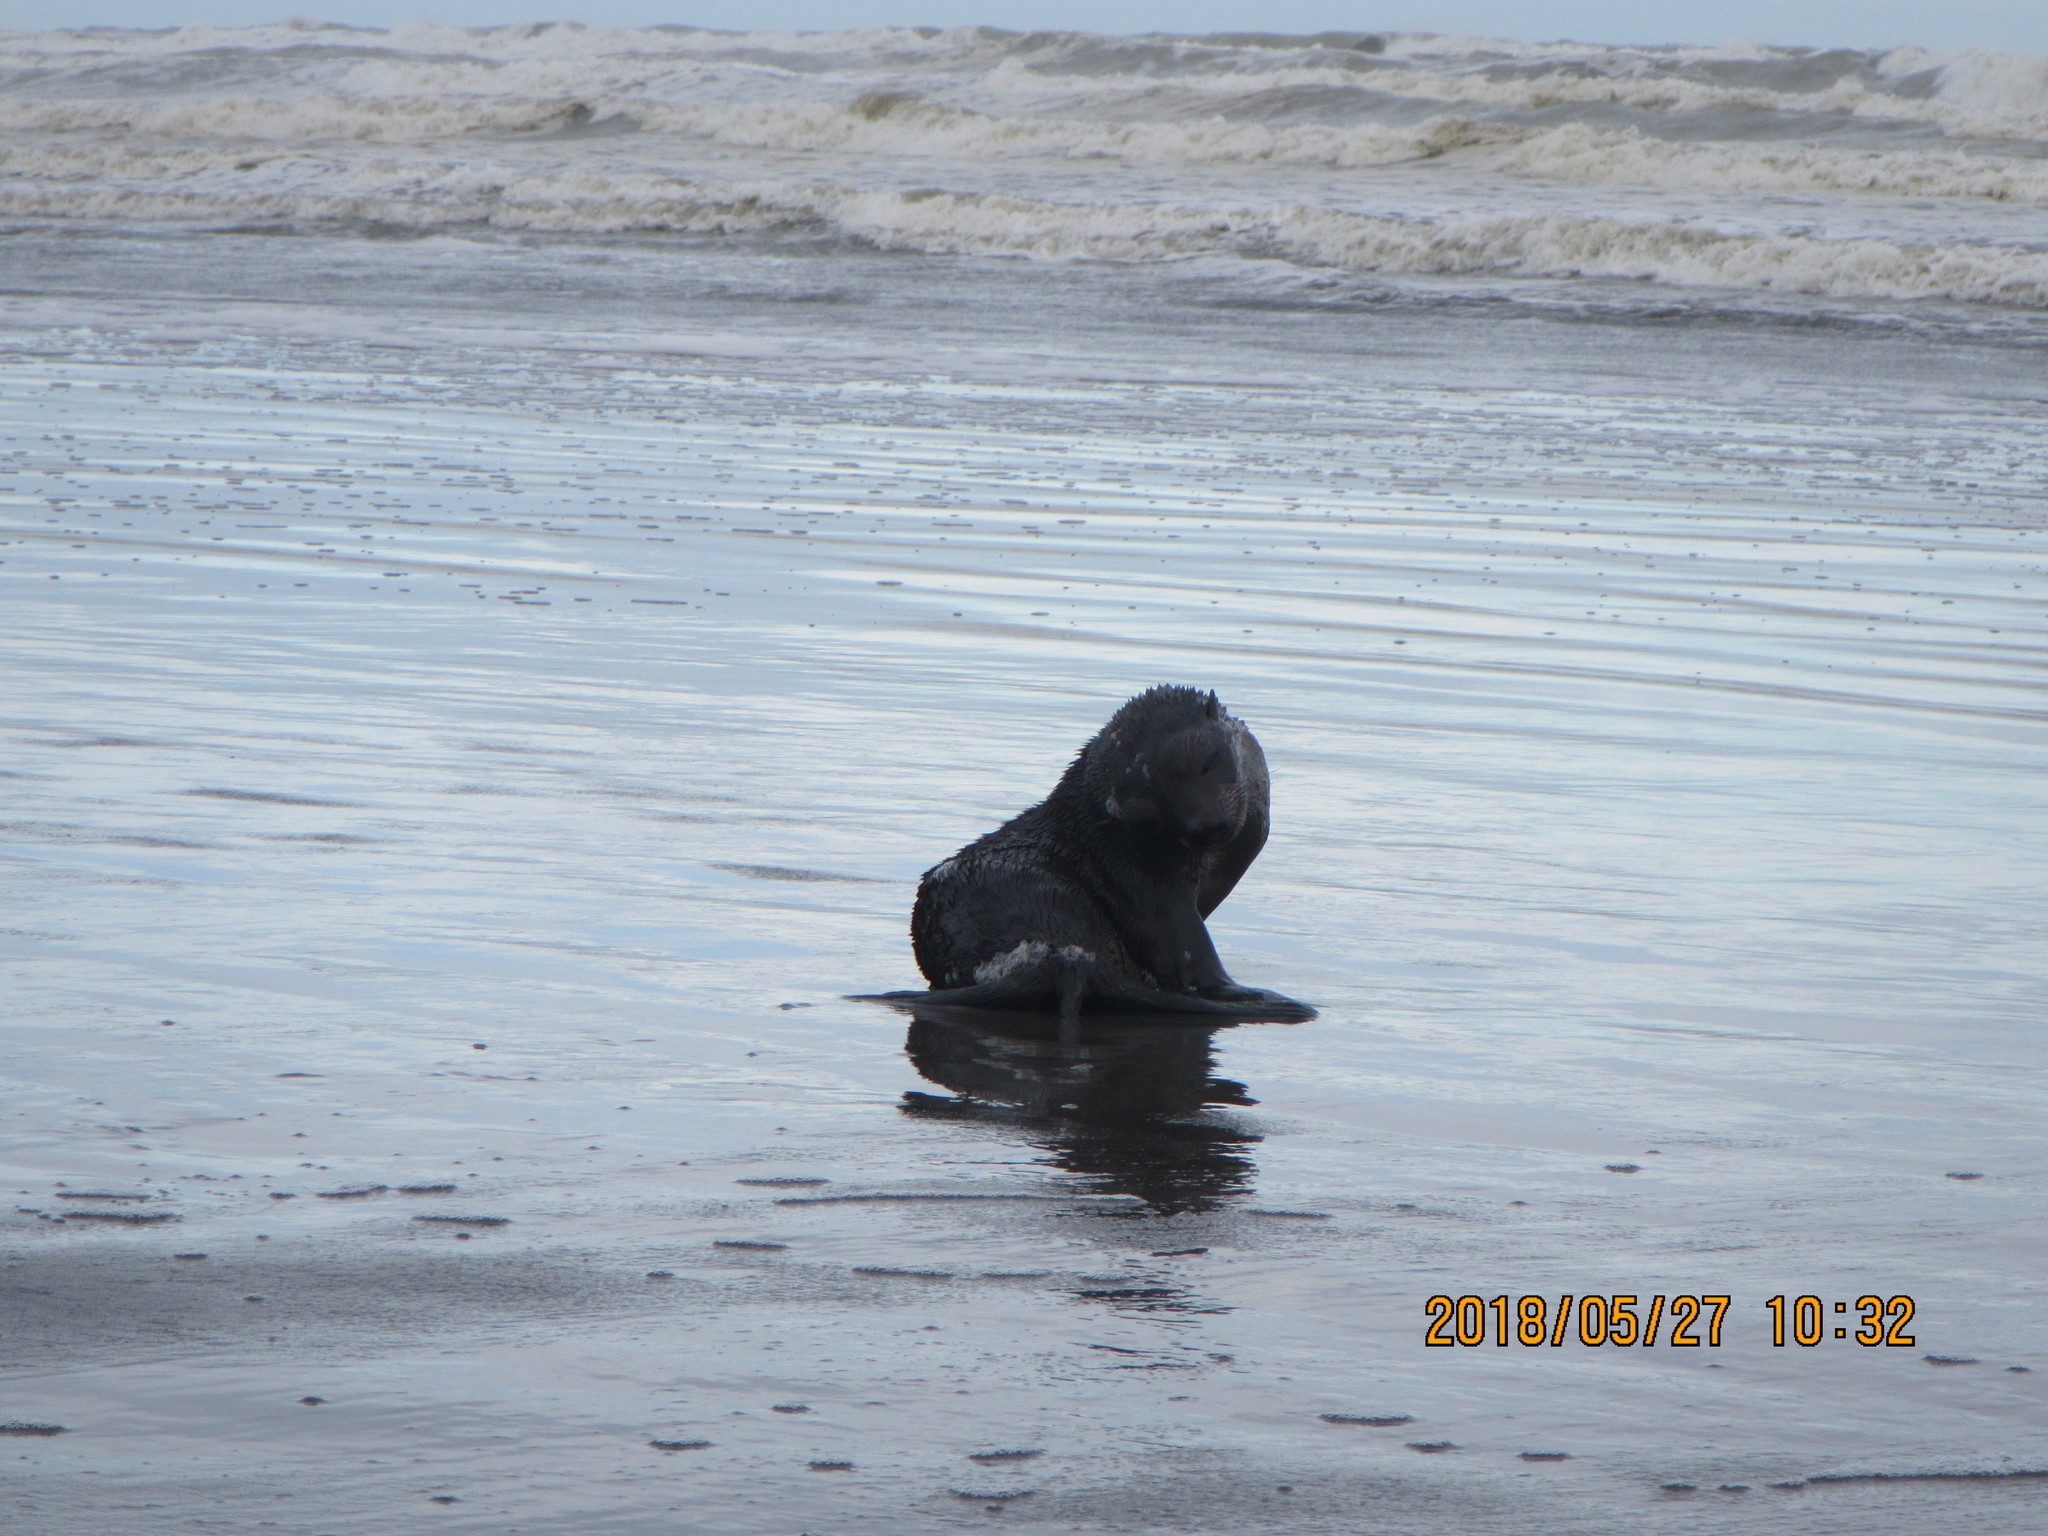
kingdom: Animalia
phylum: Chordata
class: Mammalia
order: Carnivora
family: Otariidae
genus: Arctocephalus
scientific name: Arctocephalus forsteri
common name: New zealand fur seal
